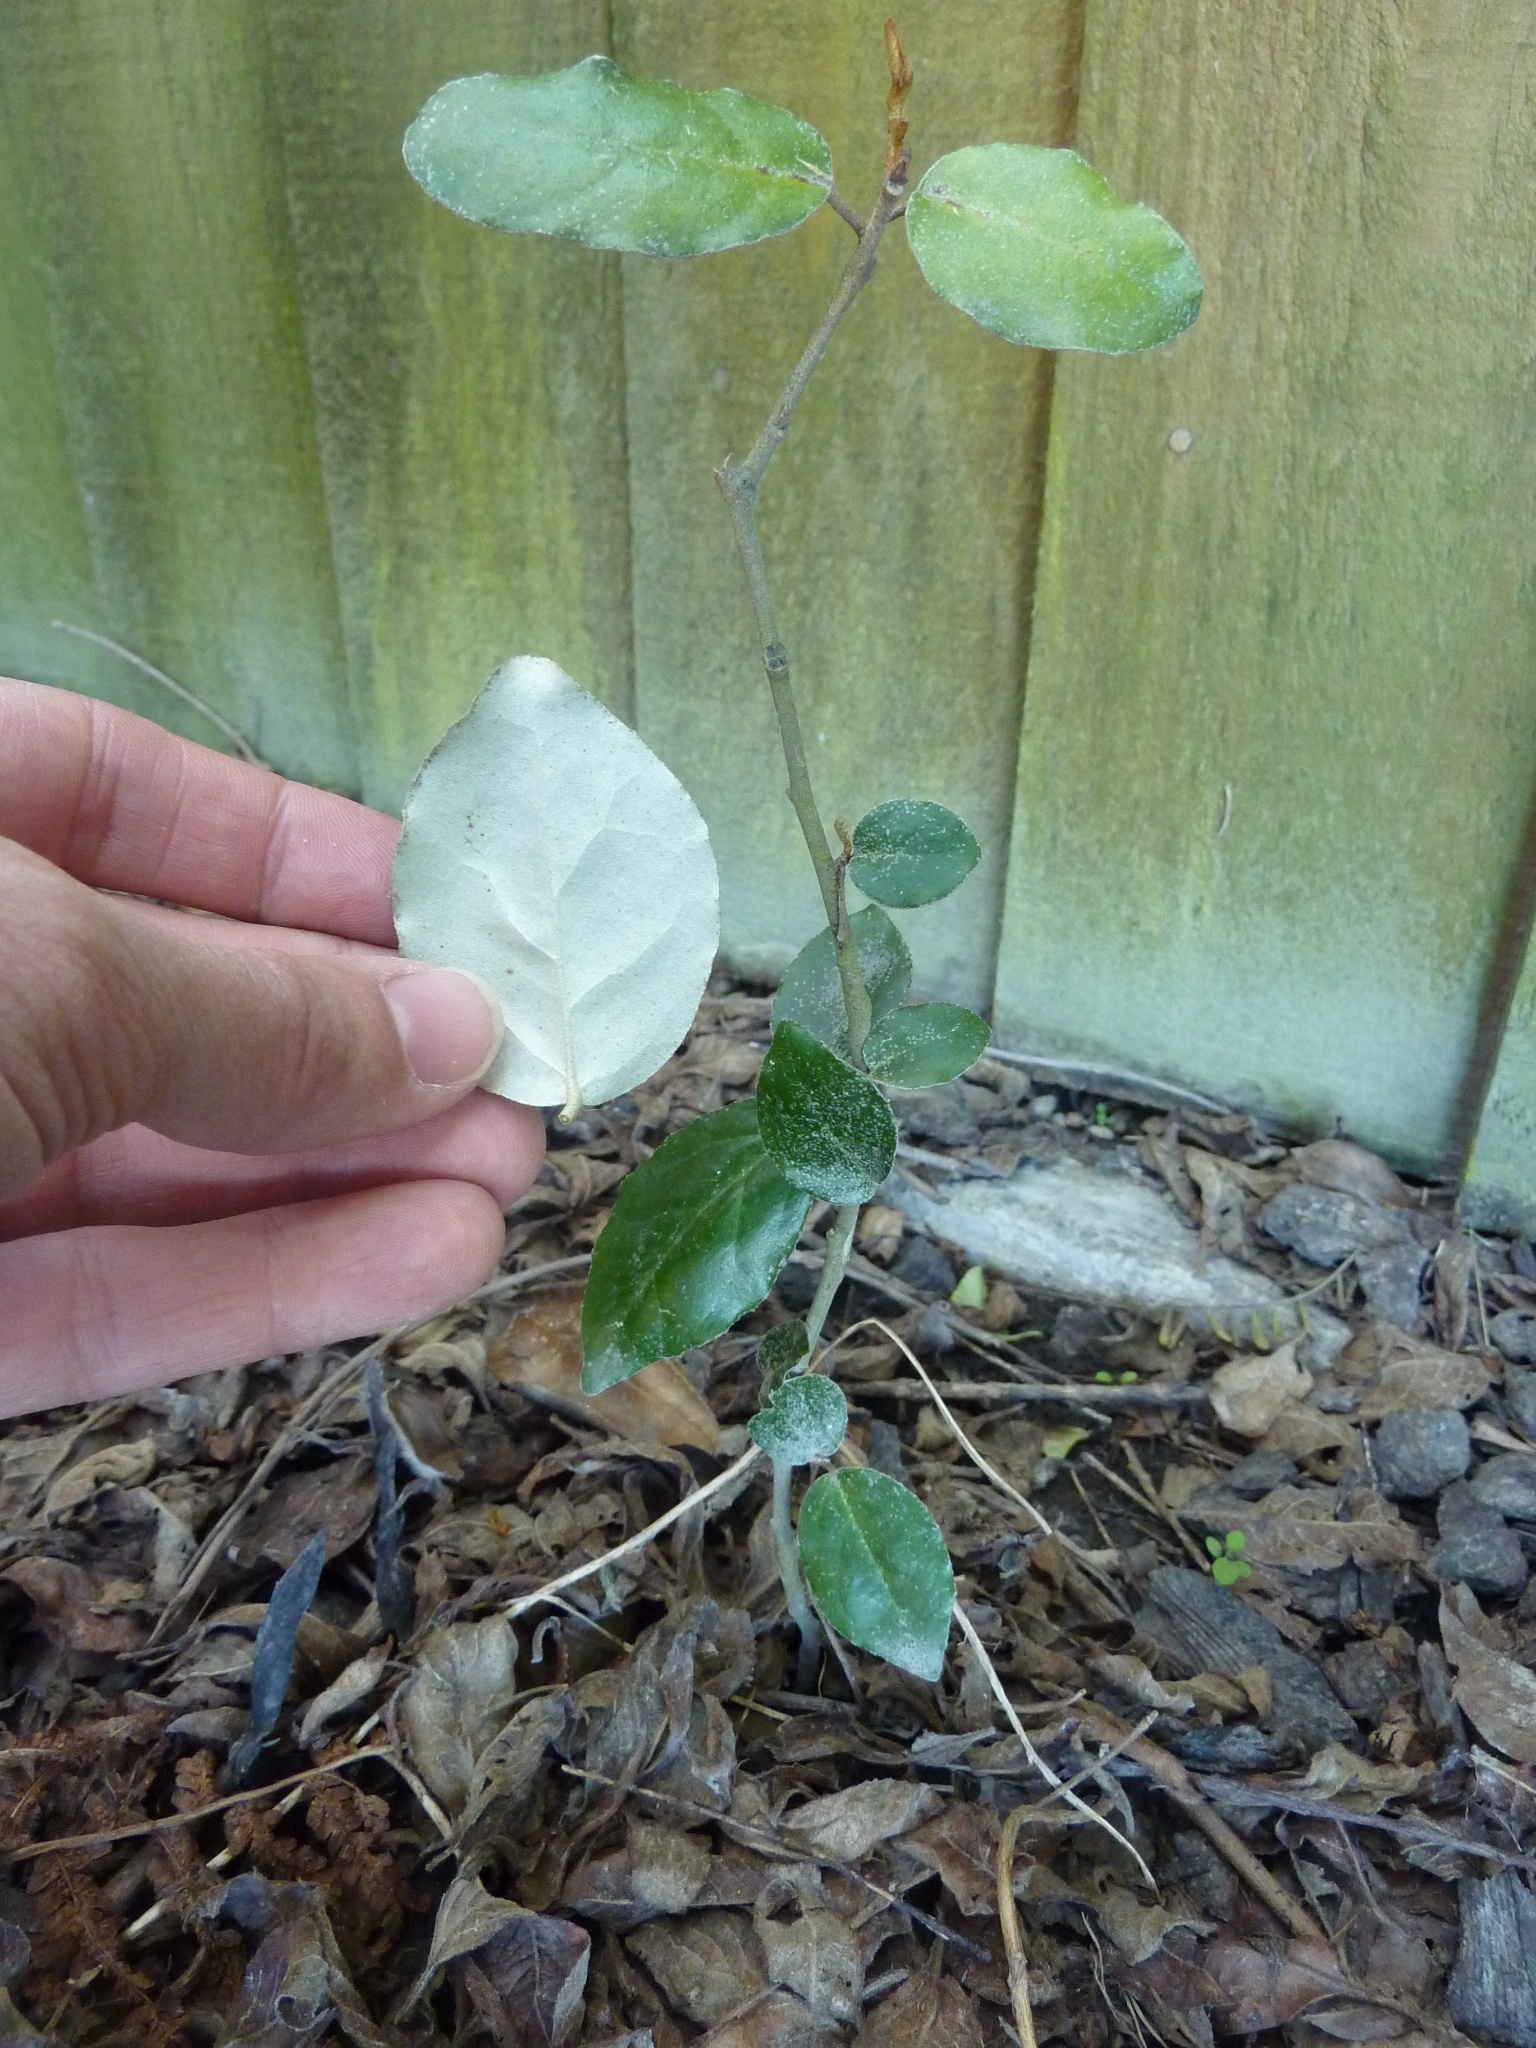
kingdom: Plantae
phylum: Tracheophyta
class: Magnoliopsida
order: Rosales
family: Elaeagnaceae
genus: Elaeagnus
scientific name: Elaeagnus reflexa
